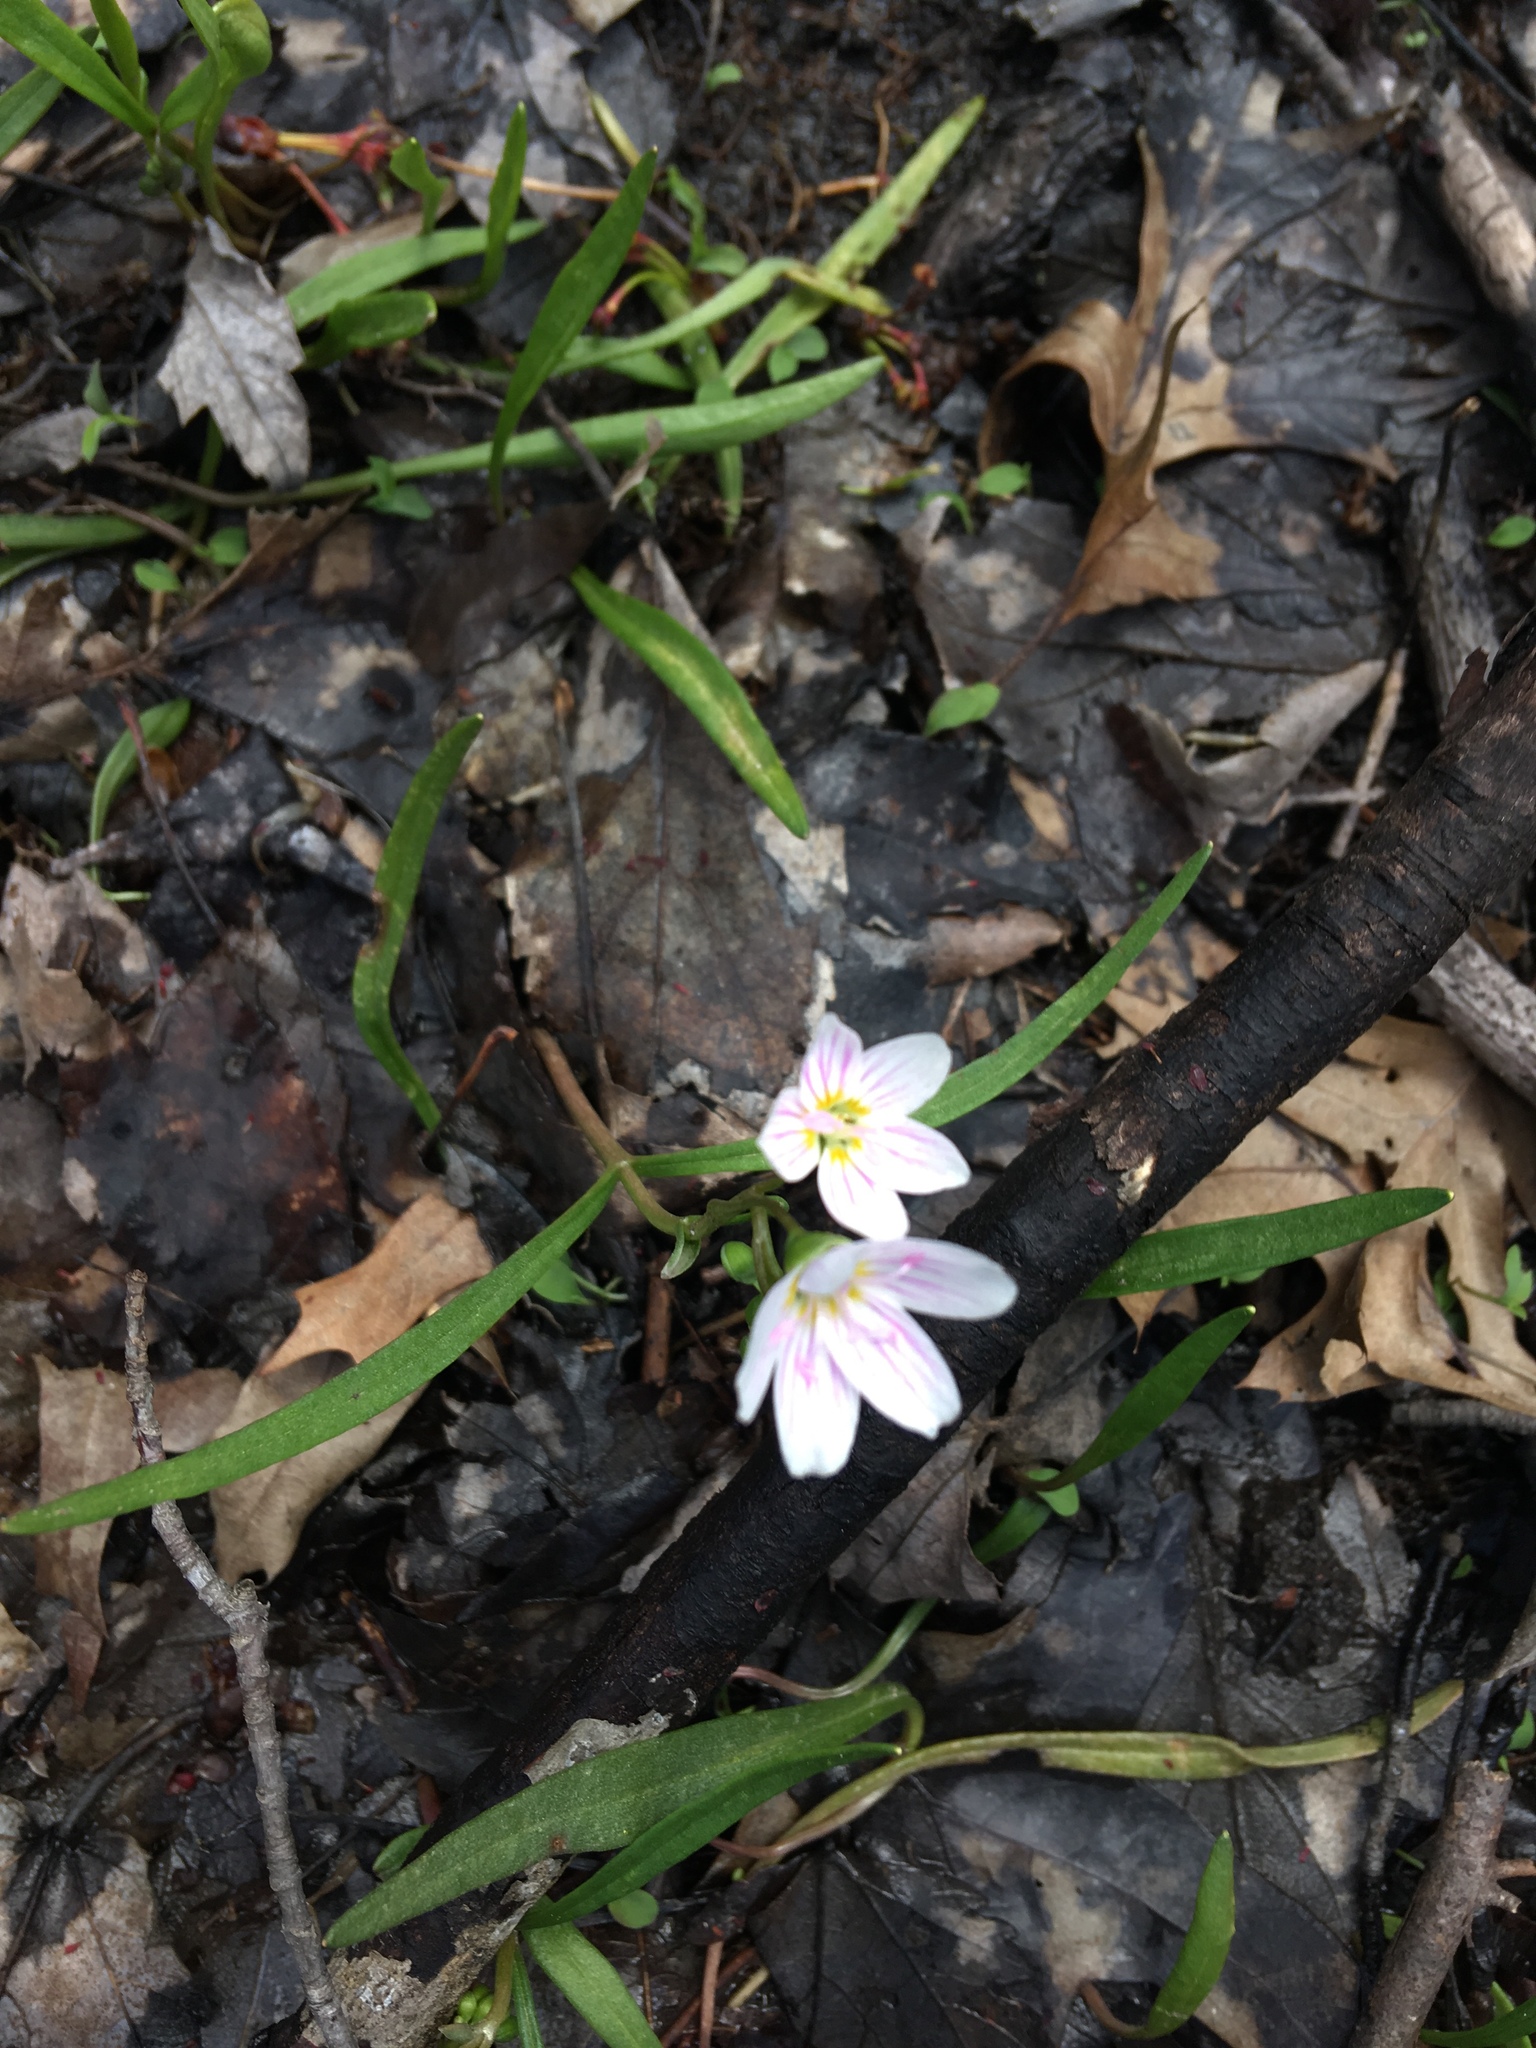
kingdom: Plantae
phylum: Tracheophyta
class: Magnoliopsida
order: Caryophyllales
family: Montiaceae
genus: Claytonia
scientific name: Claytonia virginica
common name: Virginia springbeauty
